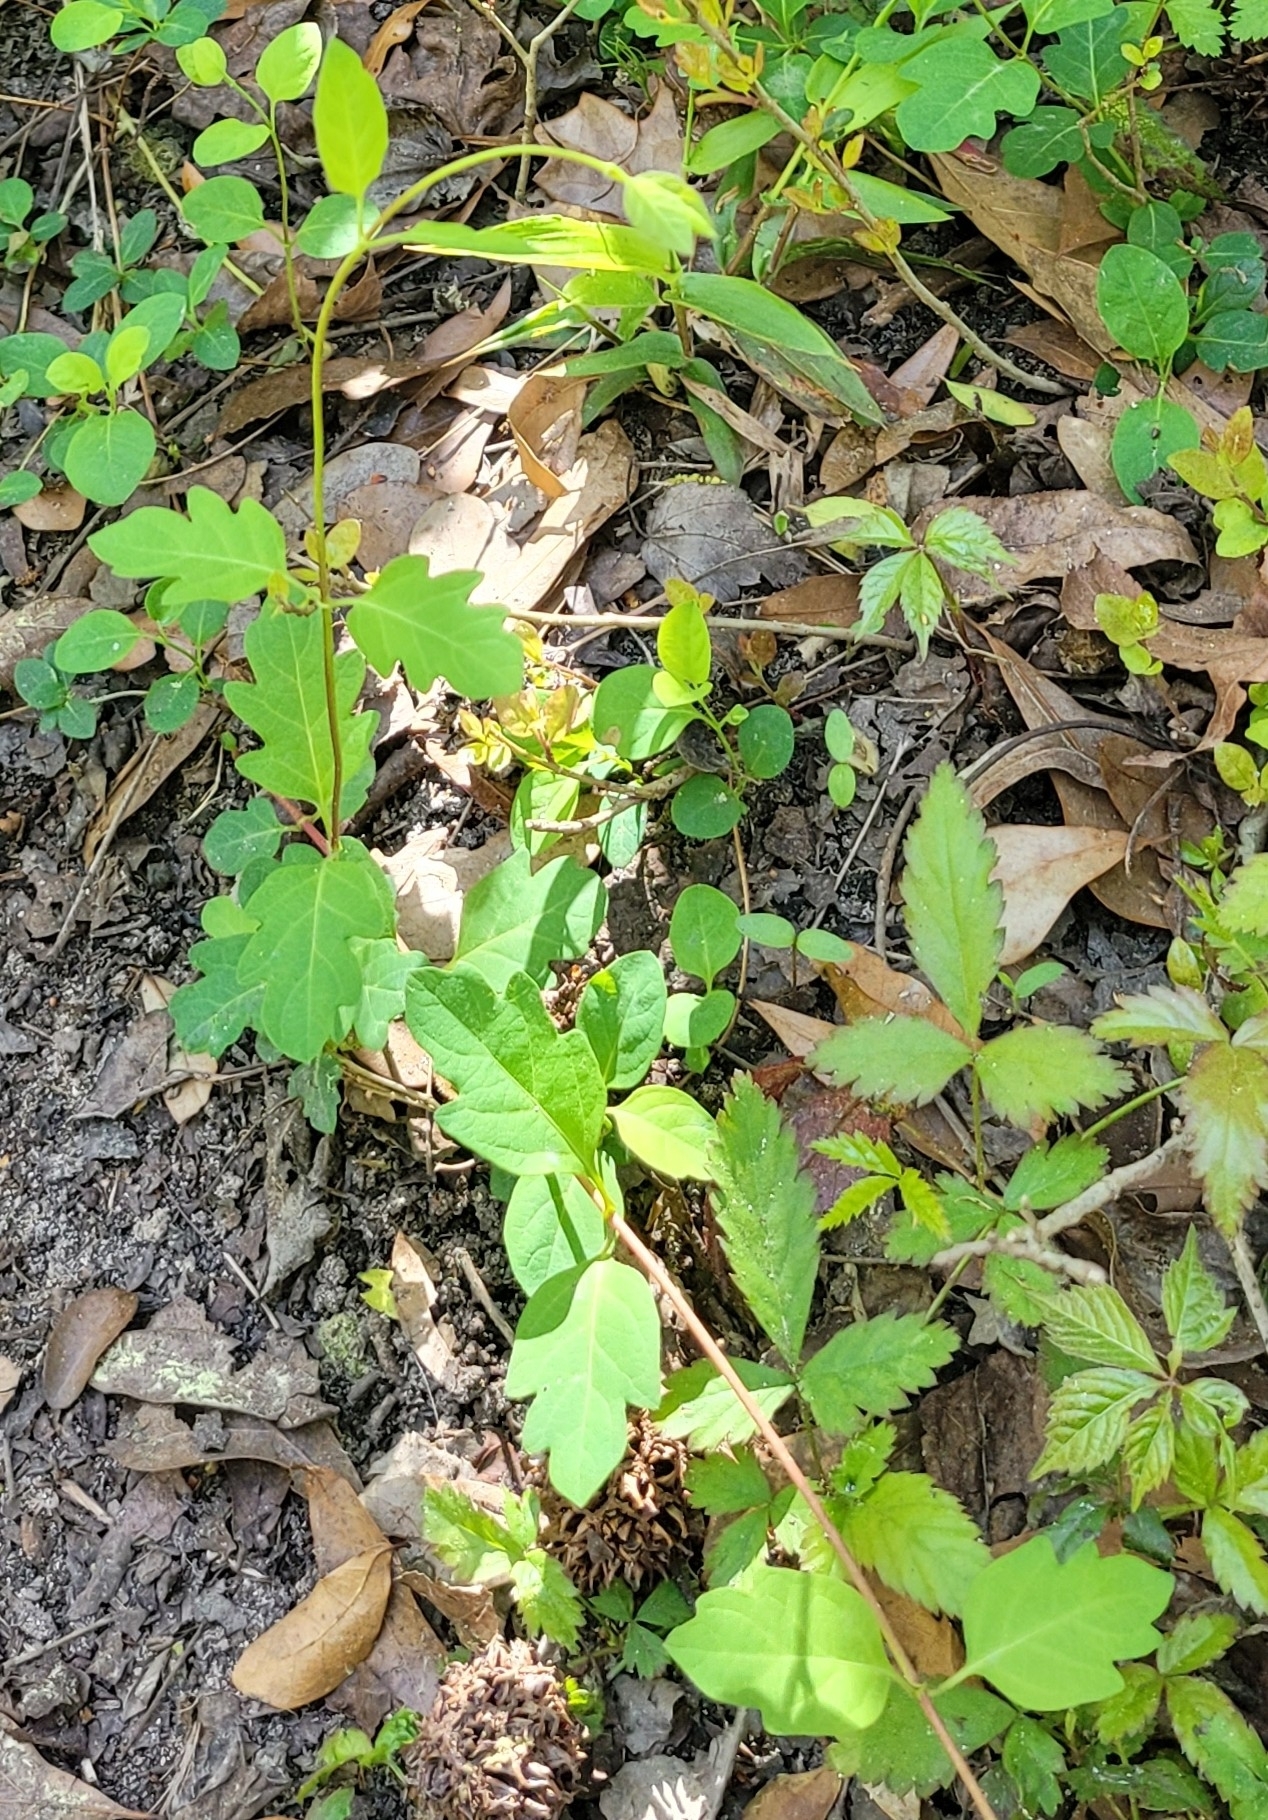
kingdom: Plantae
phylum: Tracheophyta
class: Magnoliopsida
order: Dipsacales
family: Caprifoliaceae
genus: Lonicera
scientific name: Lonicera japonica
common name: Japanese honeysuckle
